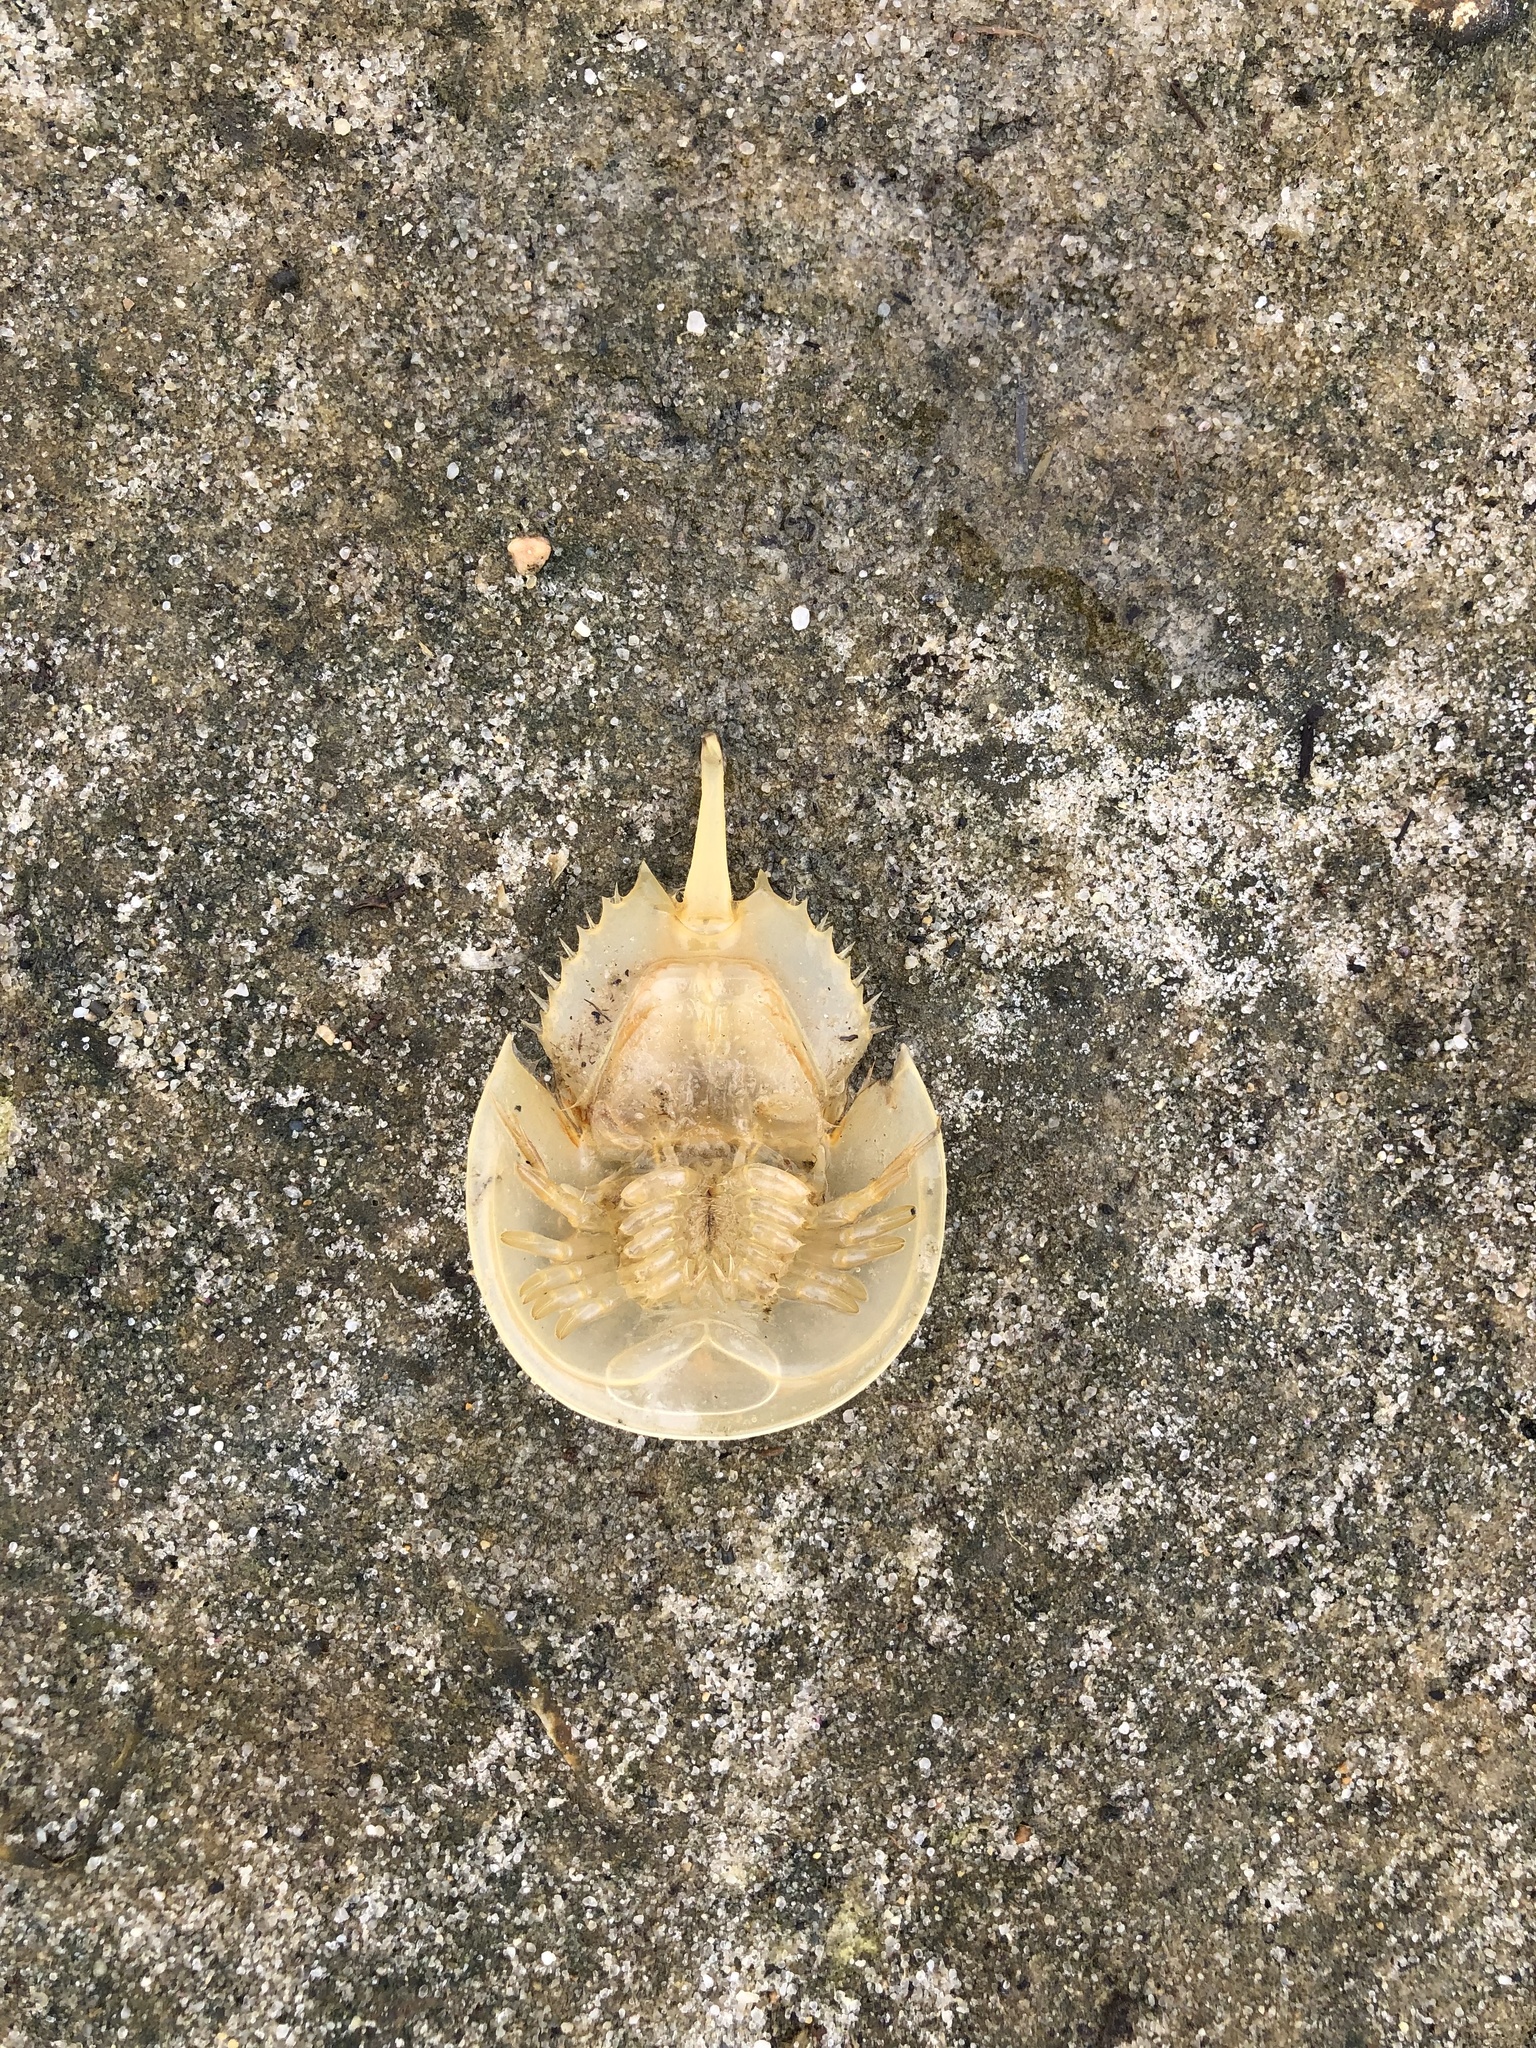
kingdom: Animalia
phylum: Arthropoda
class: Merostomata
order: Xiphosurida
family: Limulidae
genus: Limulus
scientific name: Limulus polyphemus
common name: Horseshoe crab
